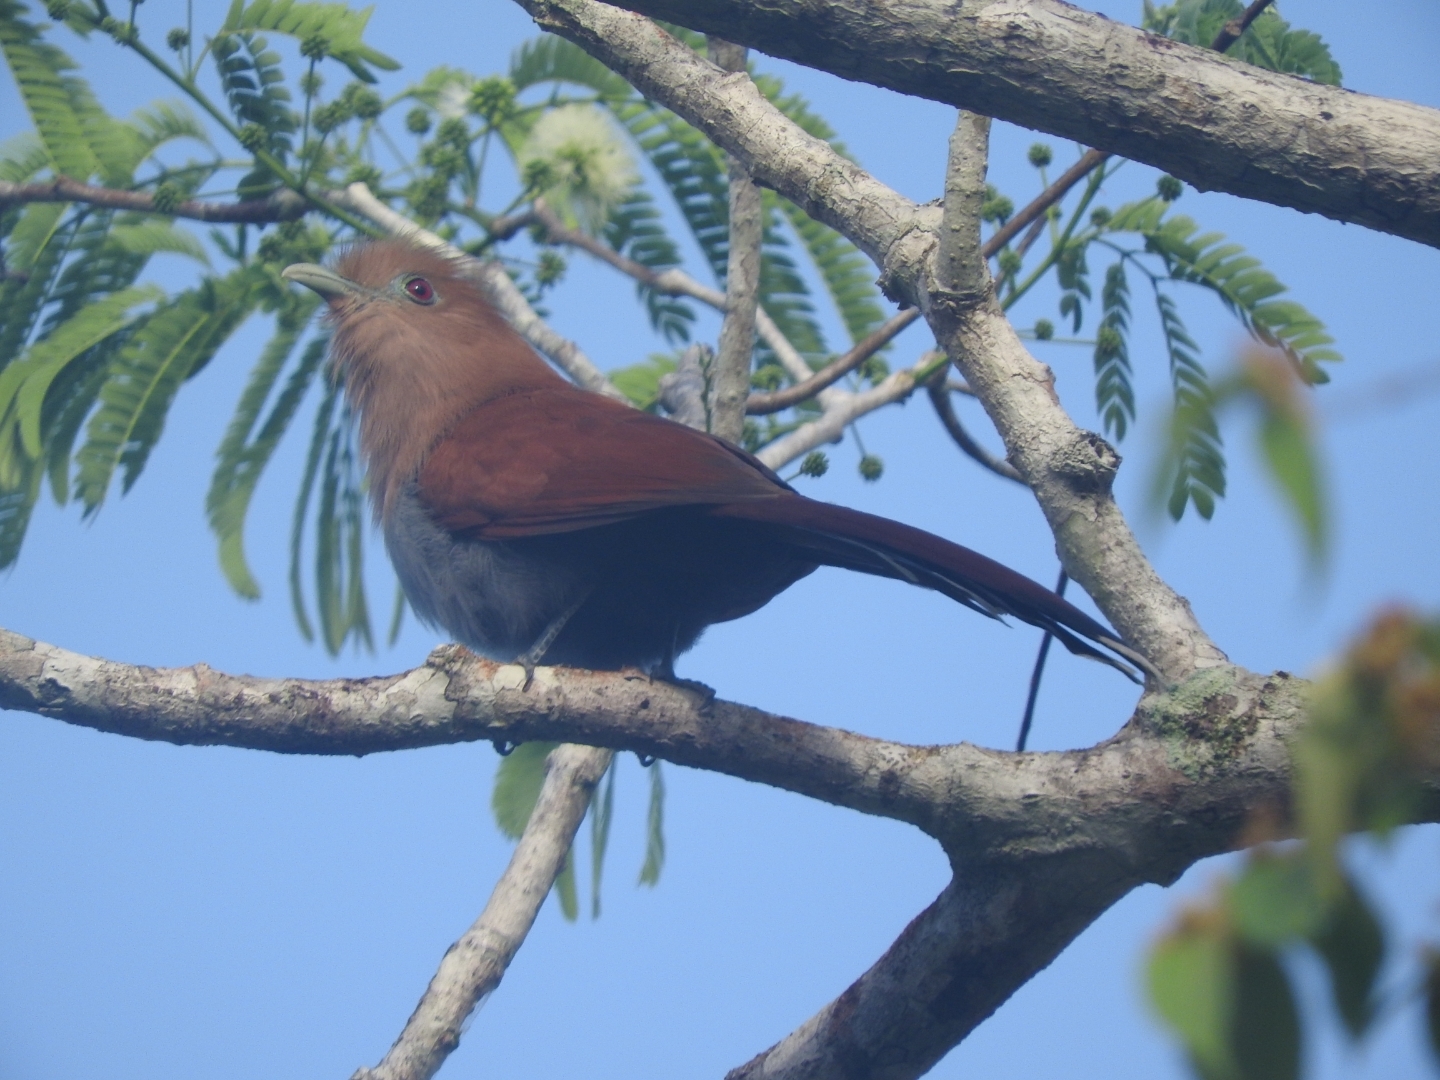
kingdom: Animalia
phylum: Chordata
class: Aves
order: Cuculiformes
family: Cuculidae
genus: Piaya
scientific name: Piaya cayana
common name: Squirrel cuckoo
